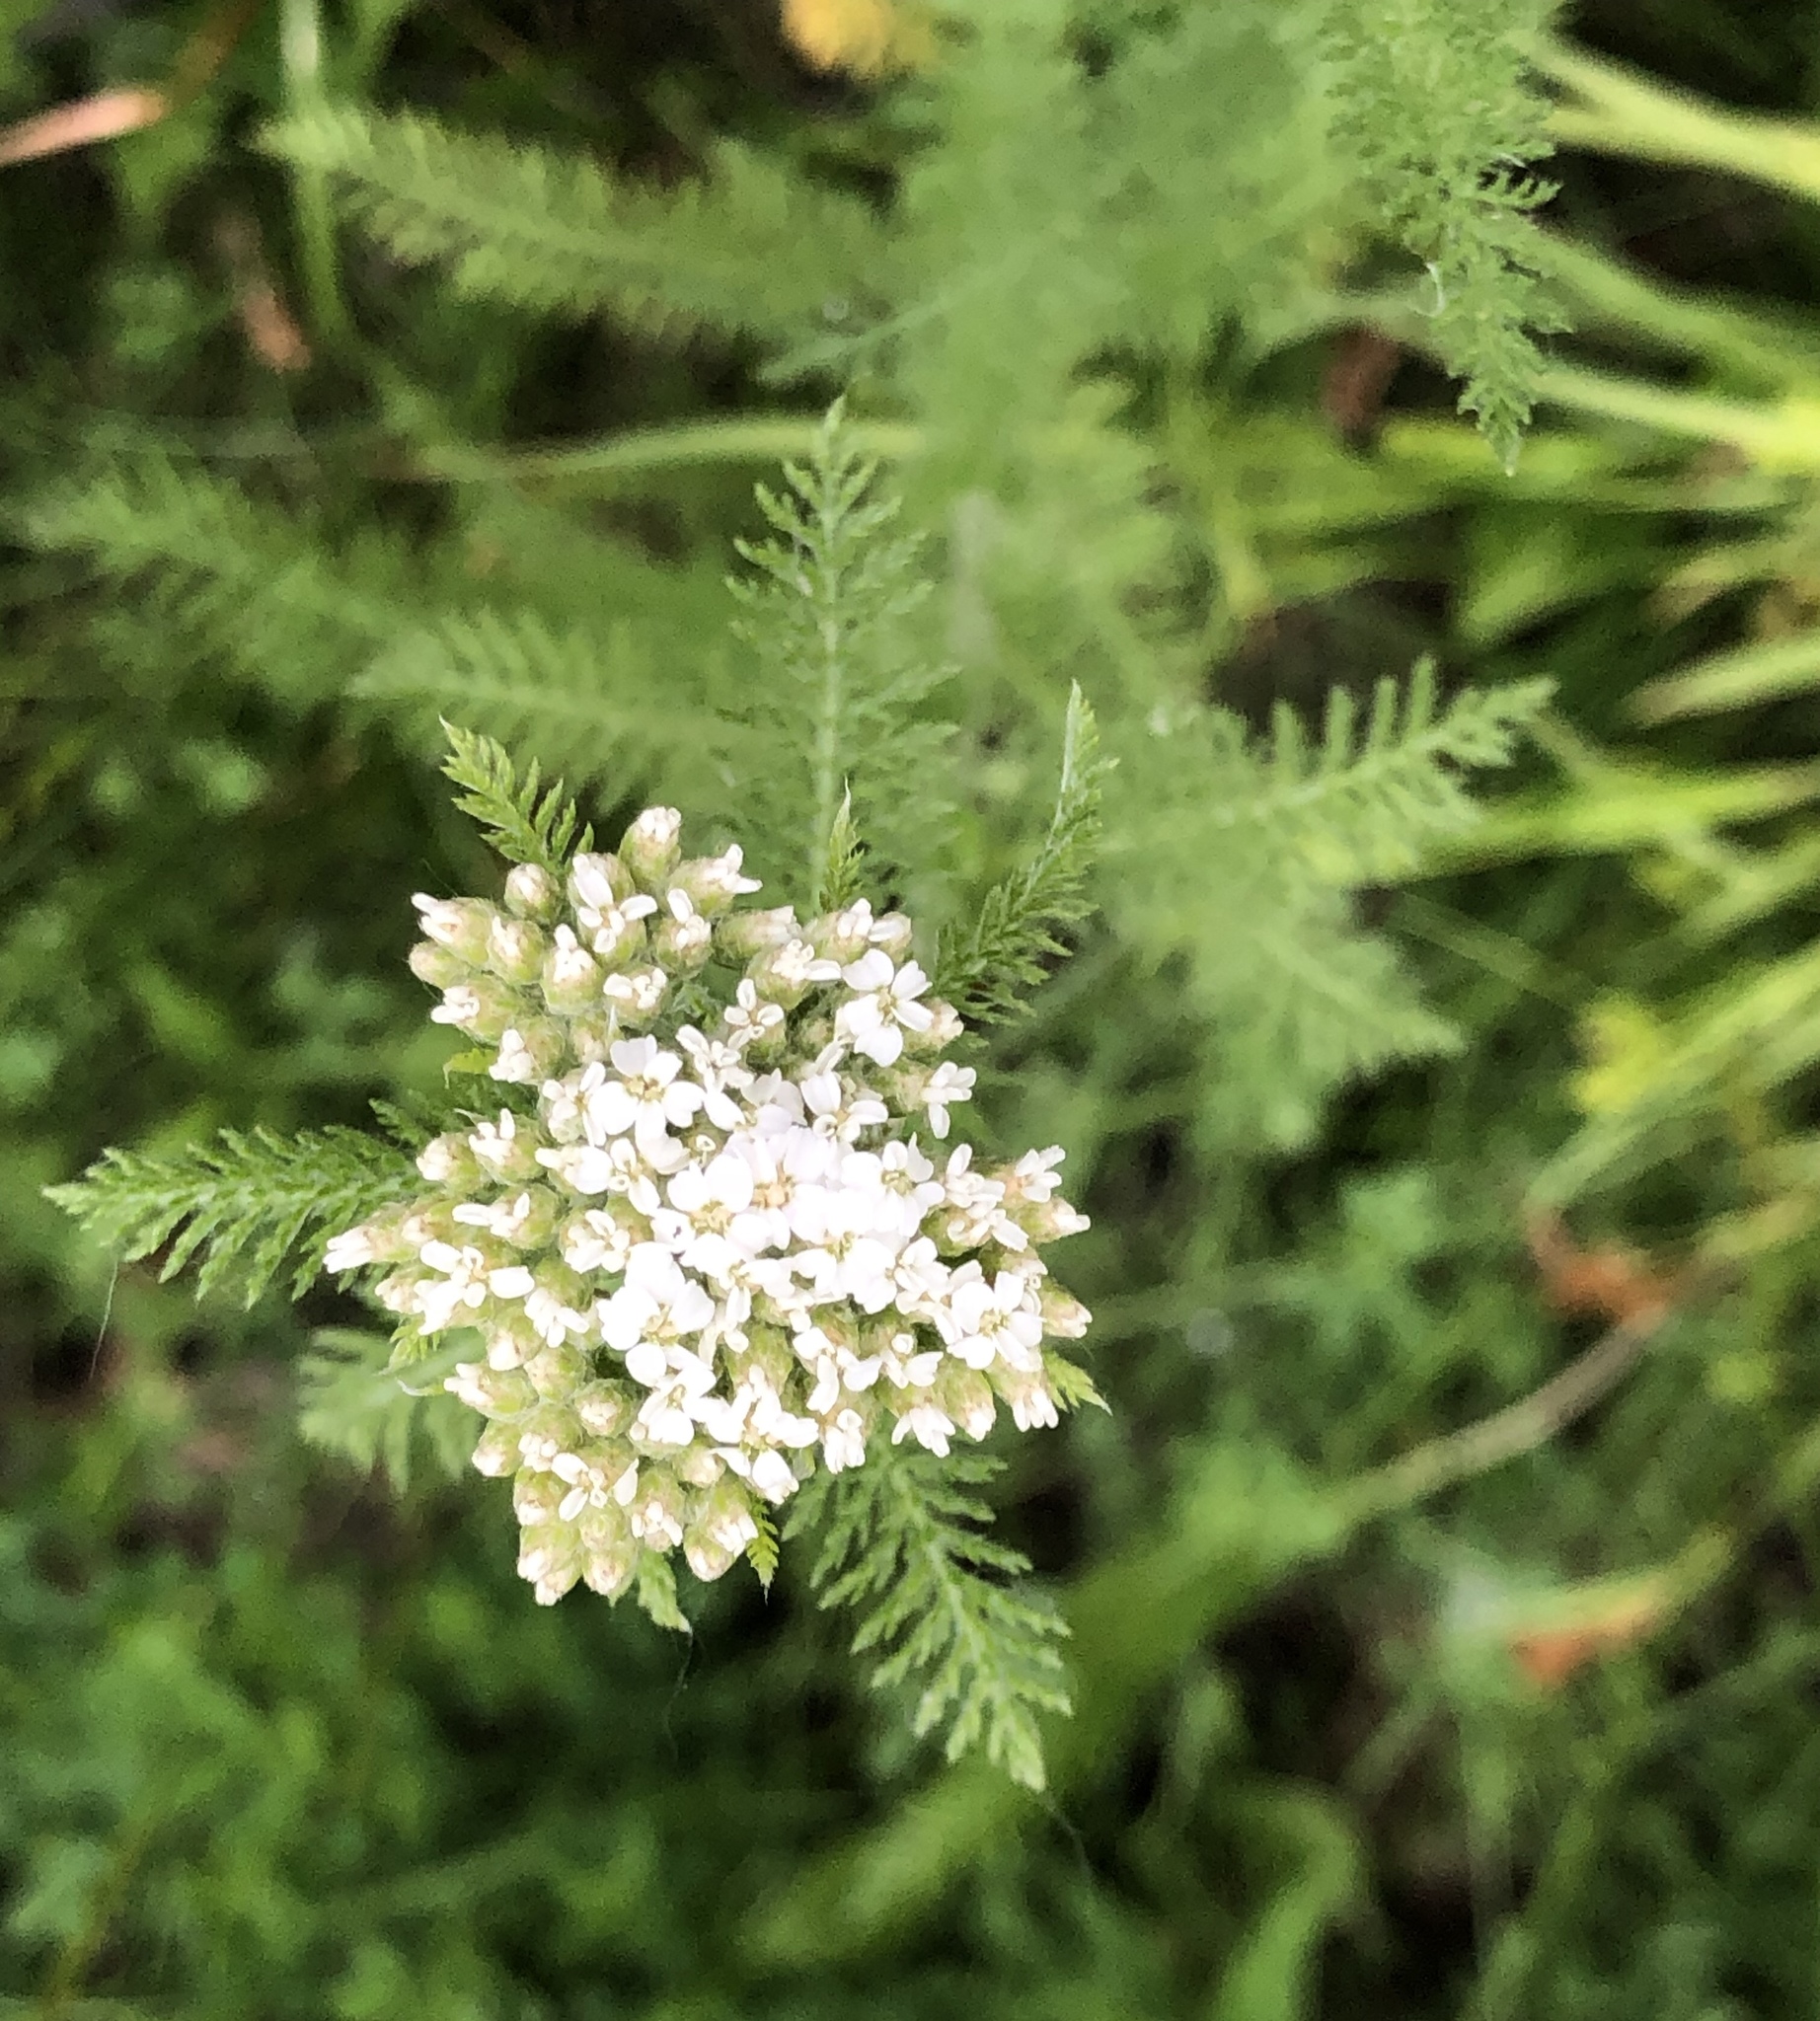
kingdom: Plantae
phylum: Tracheophyta
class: Magnoliopsida
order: Asterales
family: Asteraceae
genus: Achillea
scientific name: Achillea millefolium
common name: Yarrow
